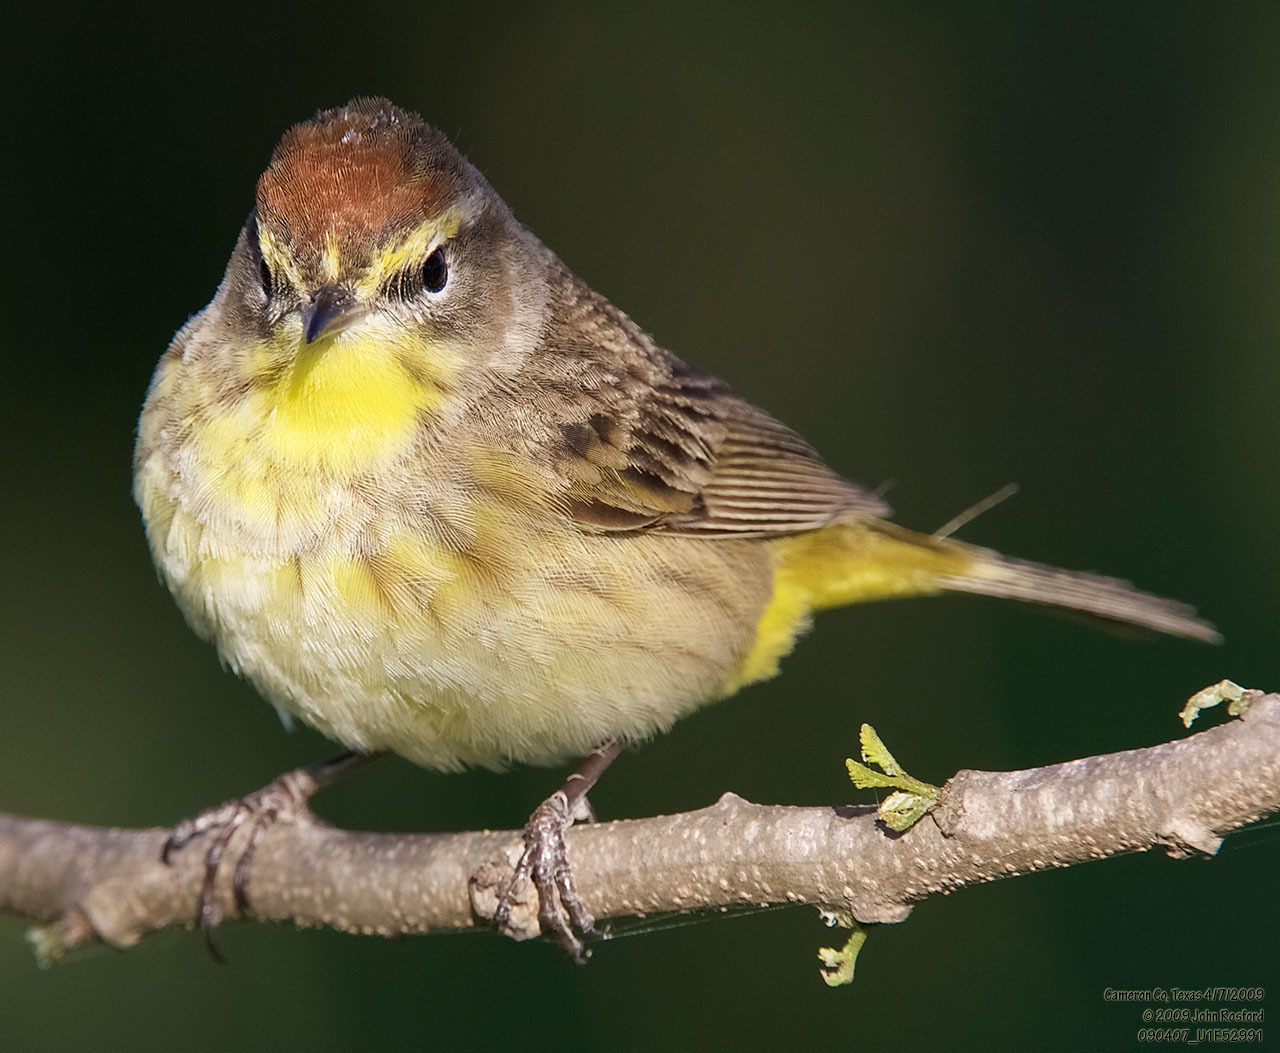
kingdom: Animalia
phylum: Chordata
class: Aves
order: Passeriformes
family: Parulidae
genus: Setophaga
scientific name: Setophaga palmarum
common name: Palm warbler
